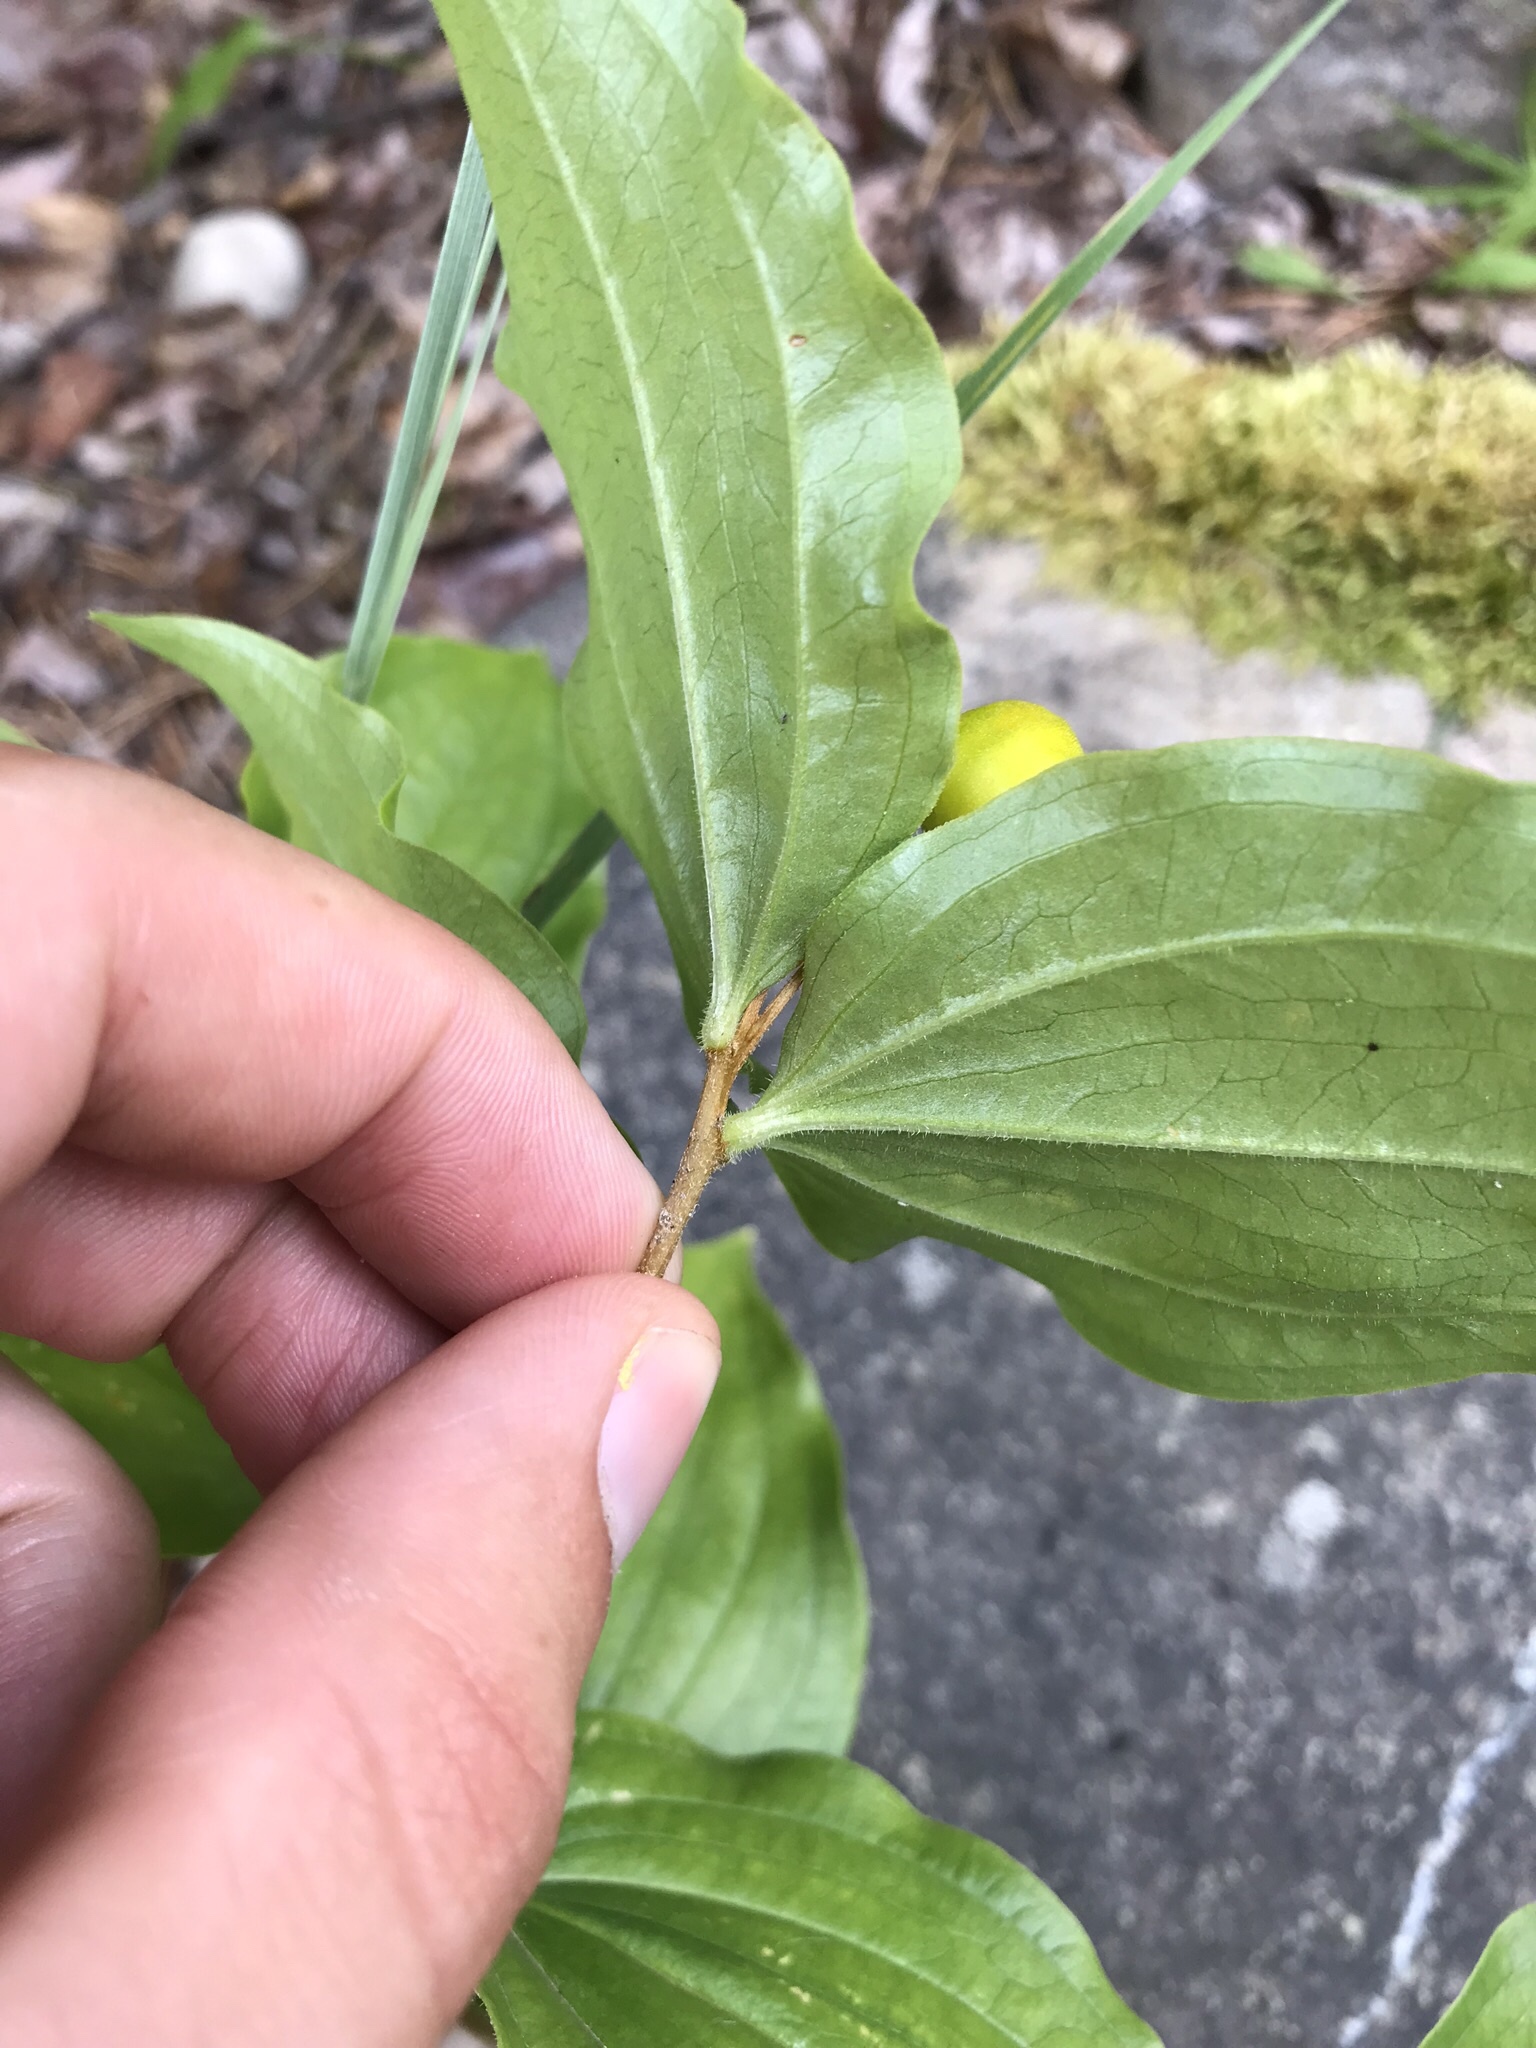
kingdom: Plantae
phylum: Tracheophyta
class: Liliopsida
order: Liliales
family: Liliaceae
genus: Prosartes
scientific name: Prosartes trachycarpa
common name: Rough-fruit fairy-bells
